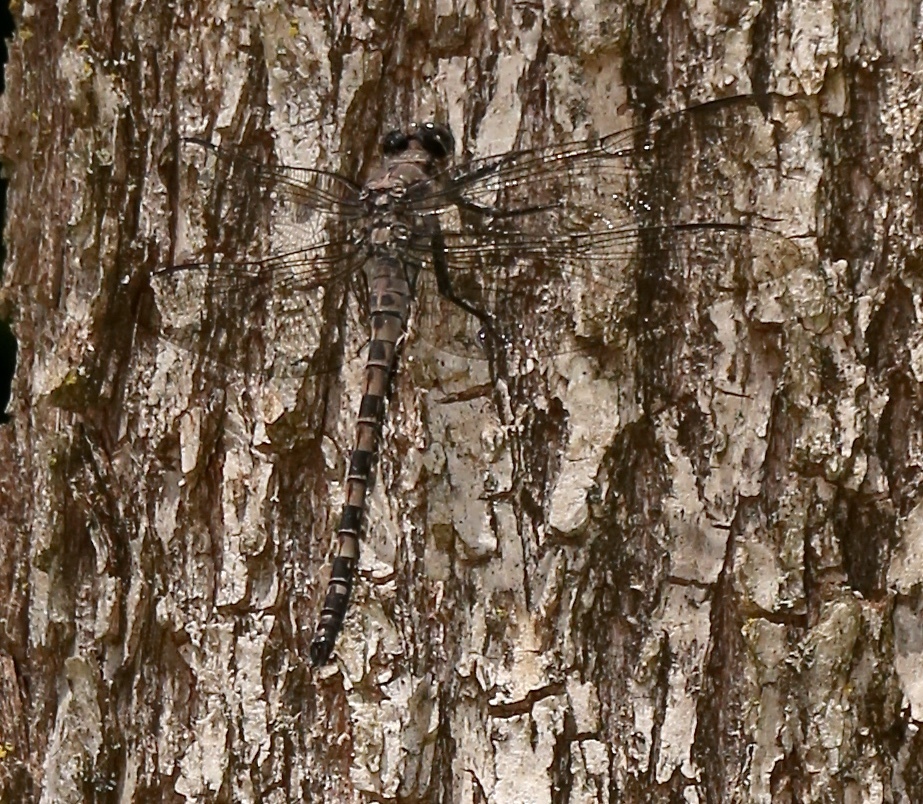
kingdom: Animalia
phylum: Arthropoda
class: Insecta
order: Odonata
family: Petaluridae
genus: Tachopteryx
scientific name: Tachopteryx thoreyi
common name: Gray petaltail
